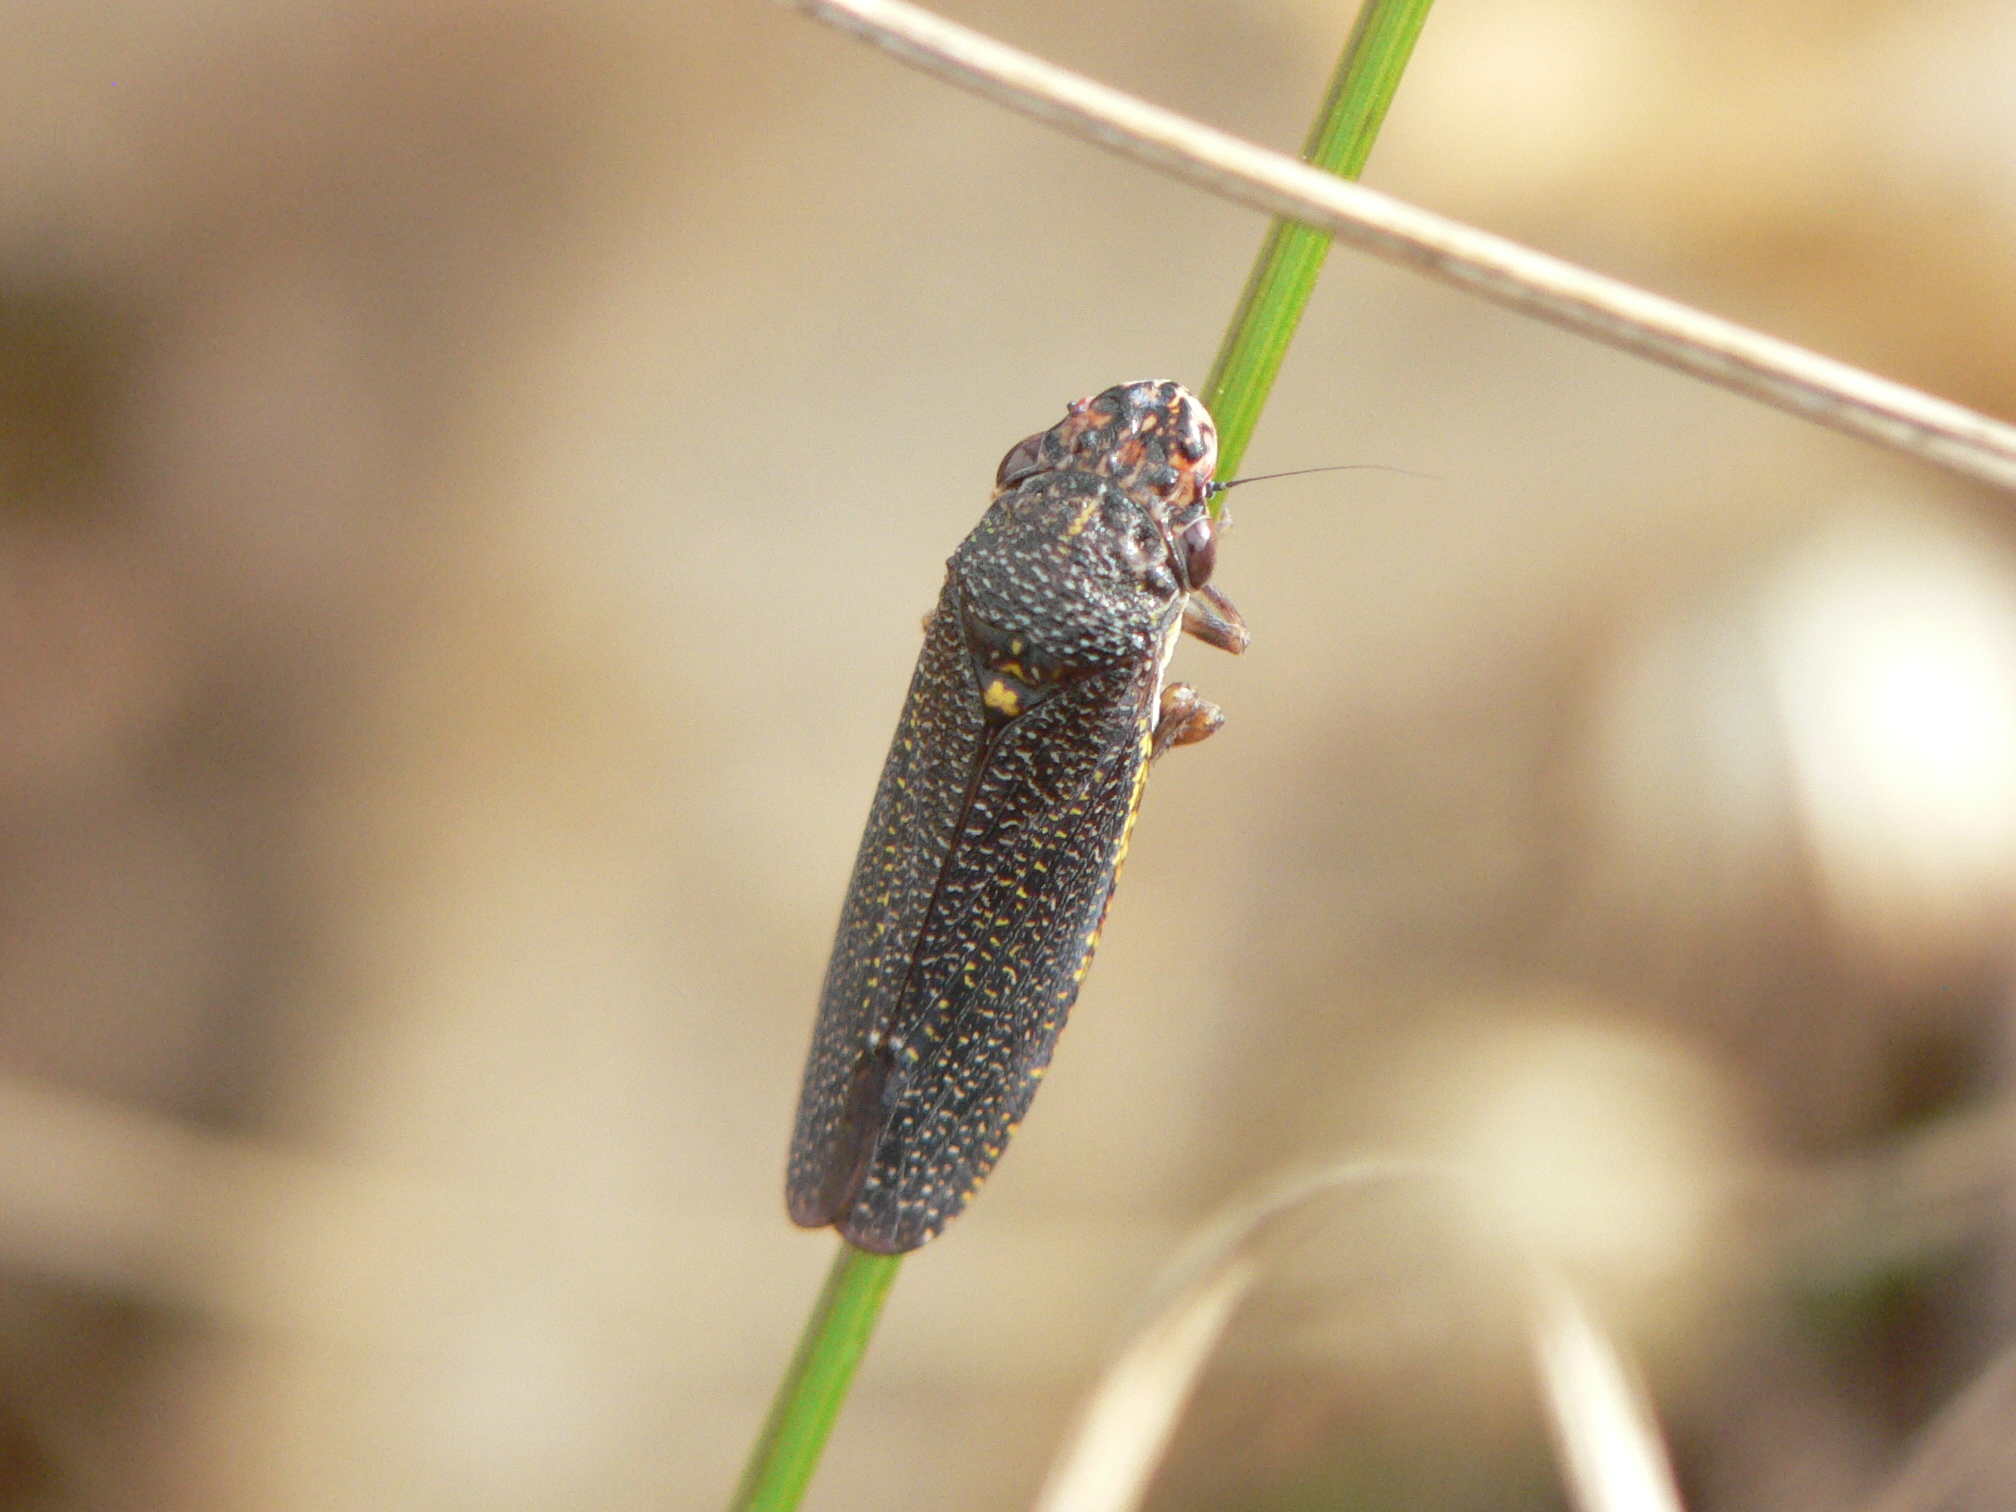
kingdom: Animalia
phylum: Arthropoda
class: Insecta
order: Hemiptera
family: Cicadellidae
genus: Paraulacizes
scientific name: Paraulacizes irrorata
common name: Speckled sharpshooter
